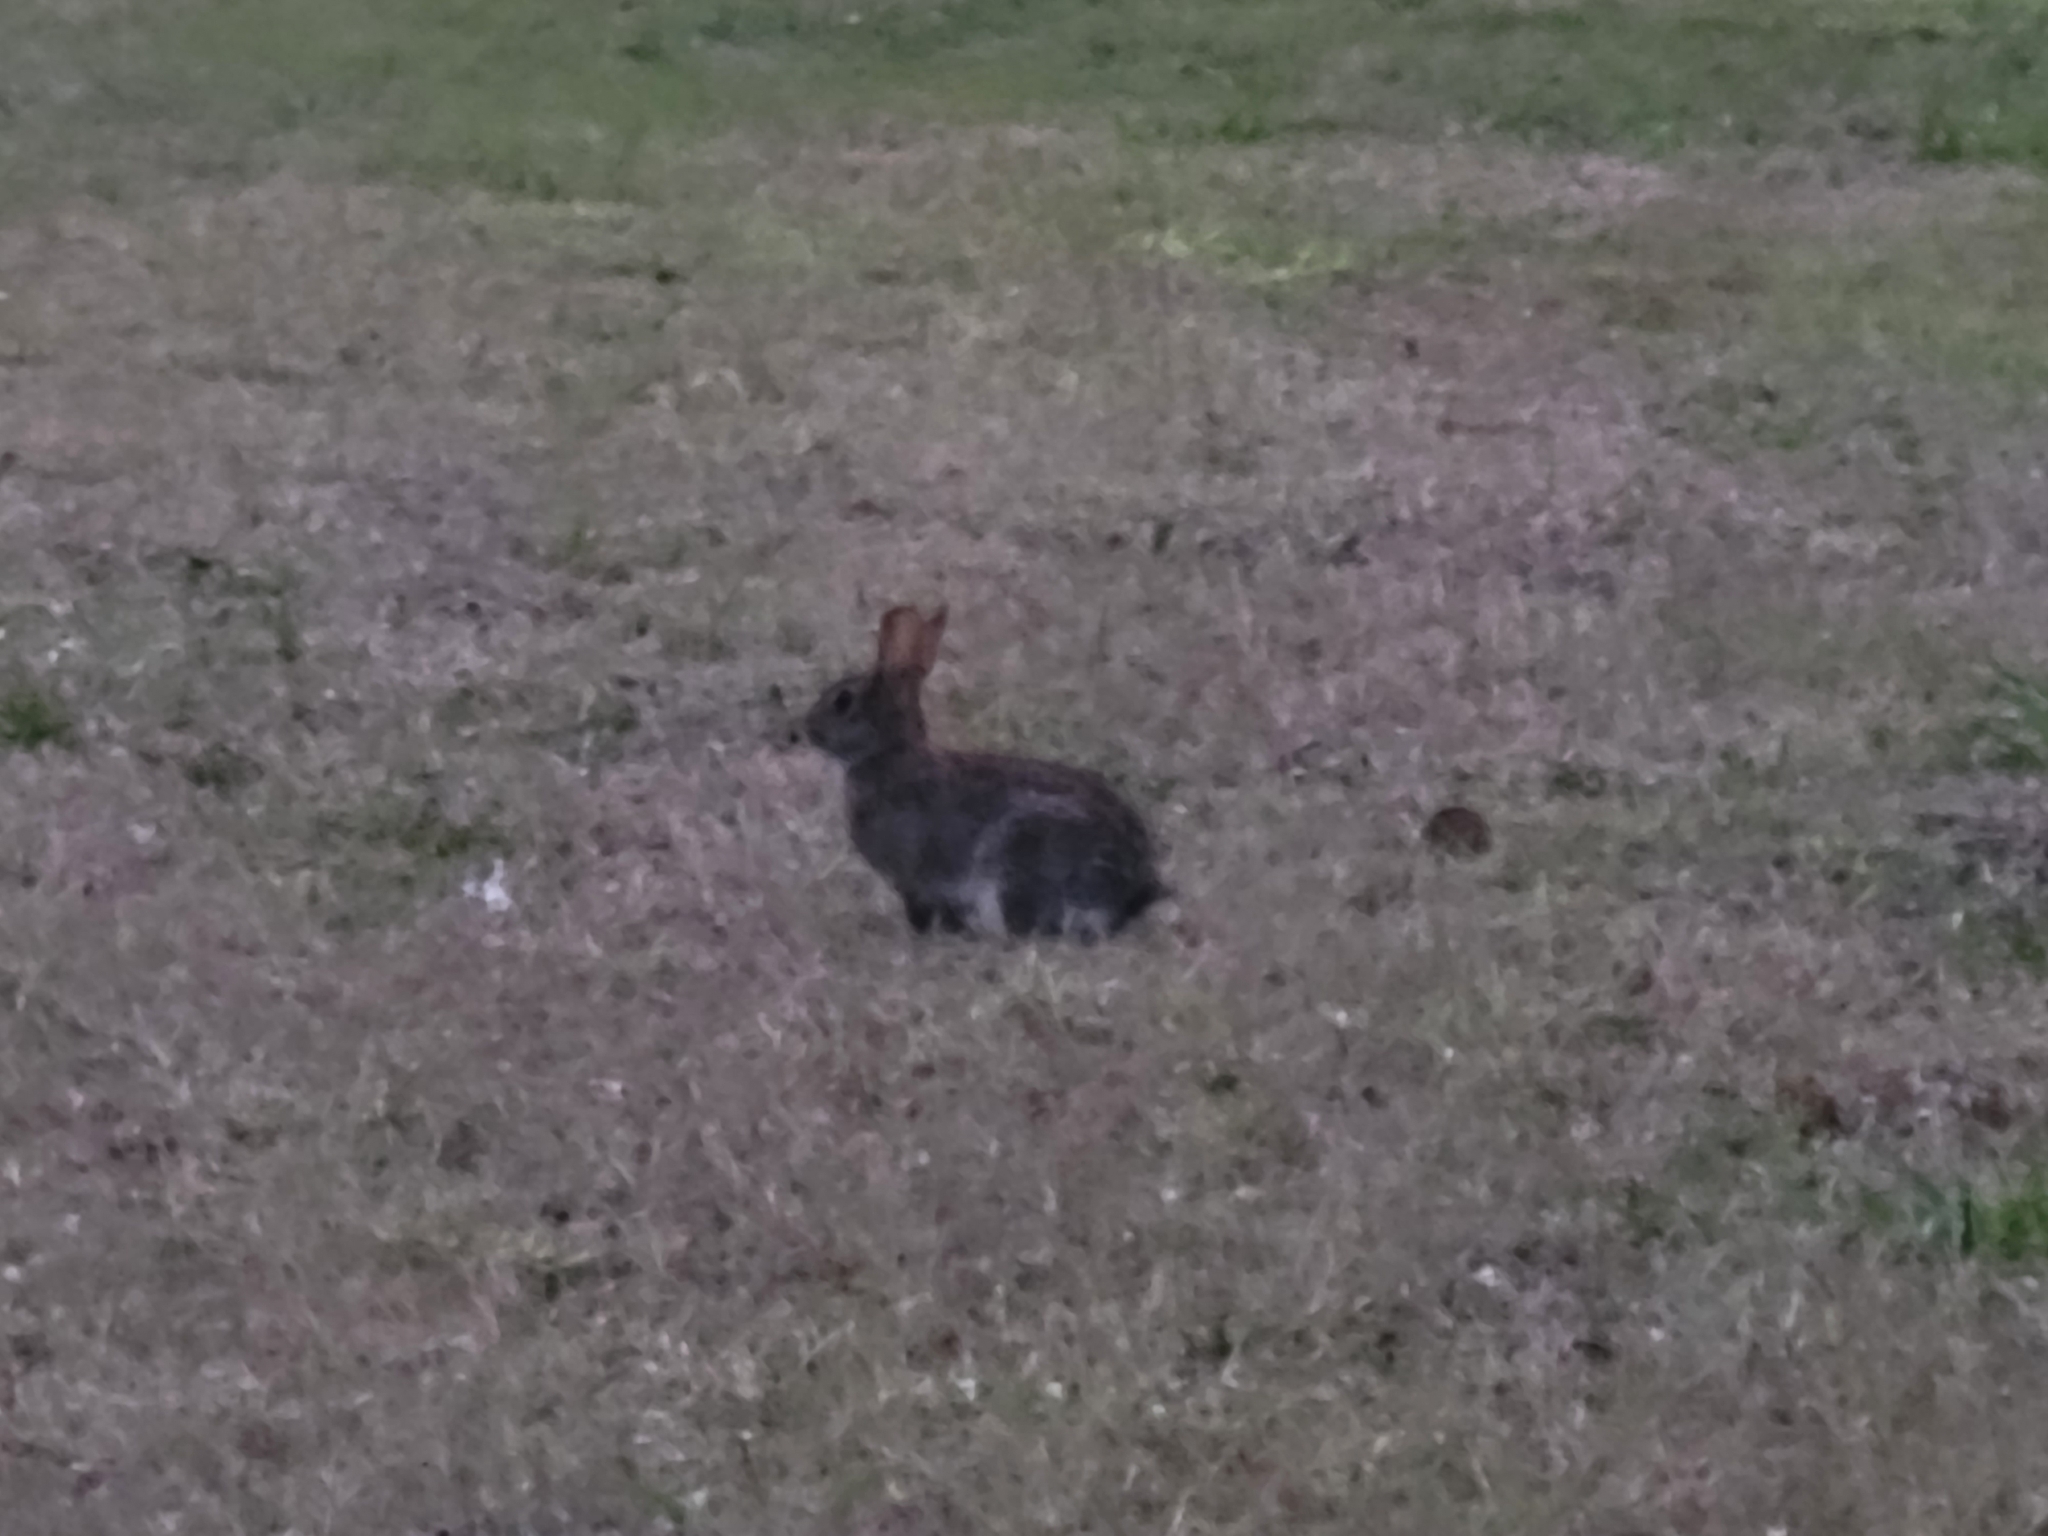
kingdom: Animalia
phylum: Chordata
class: Mammalia
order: Lagomorpha
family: Leporidae
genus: Sylvilagus
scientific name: Sylvilagus floridanus
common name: Eastern cottontail
